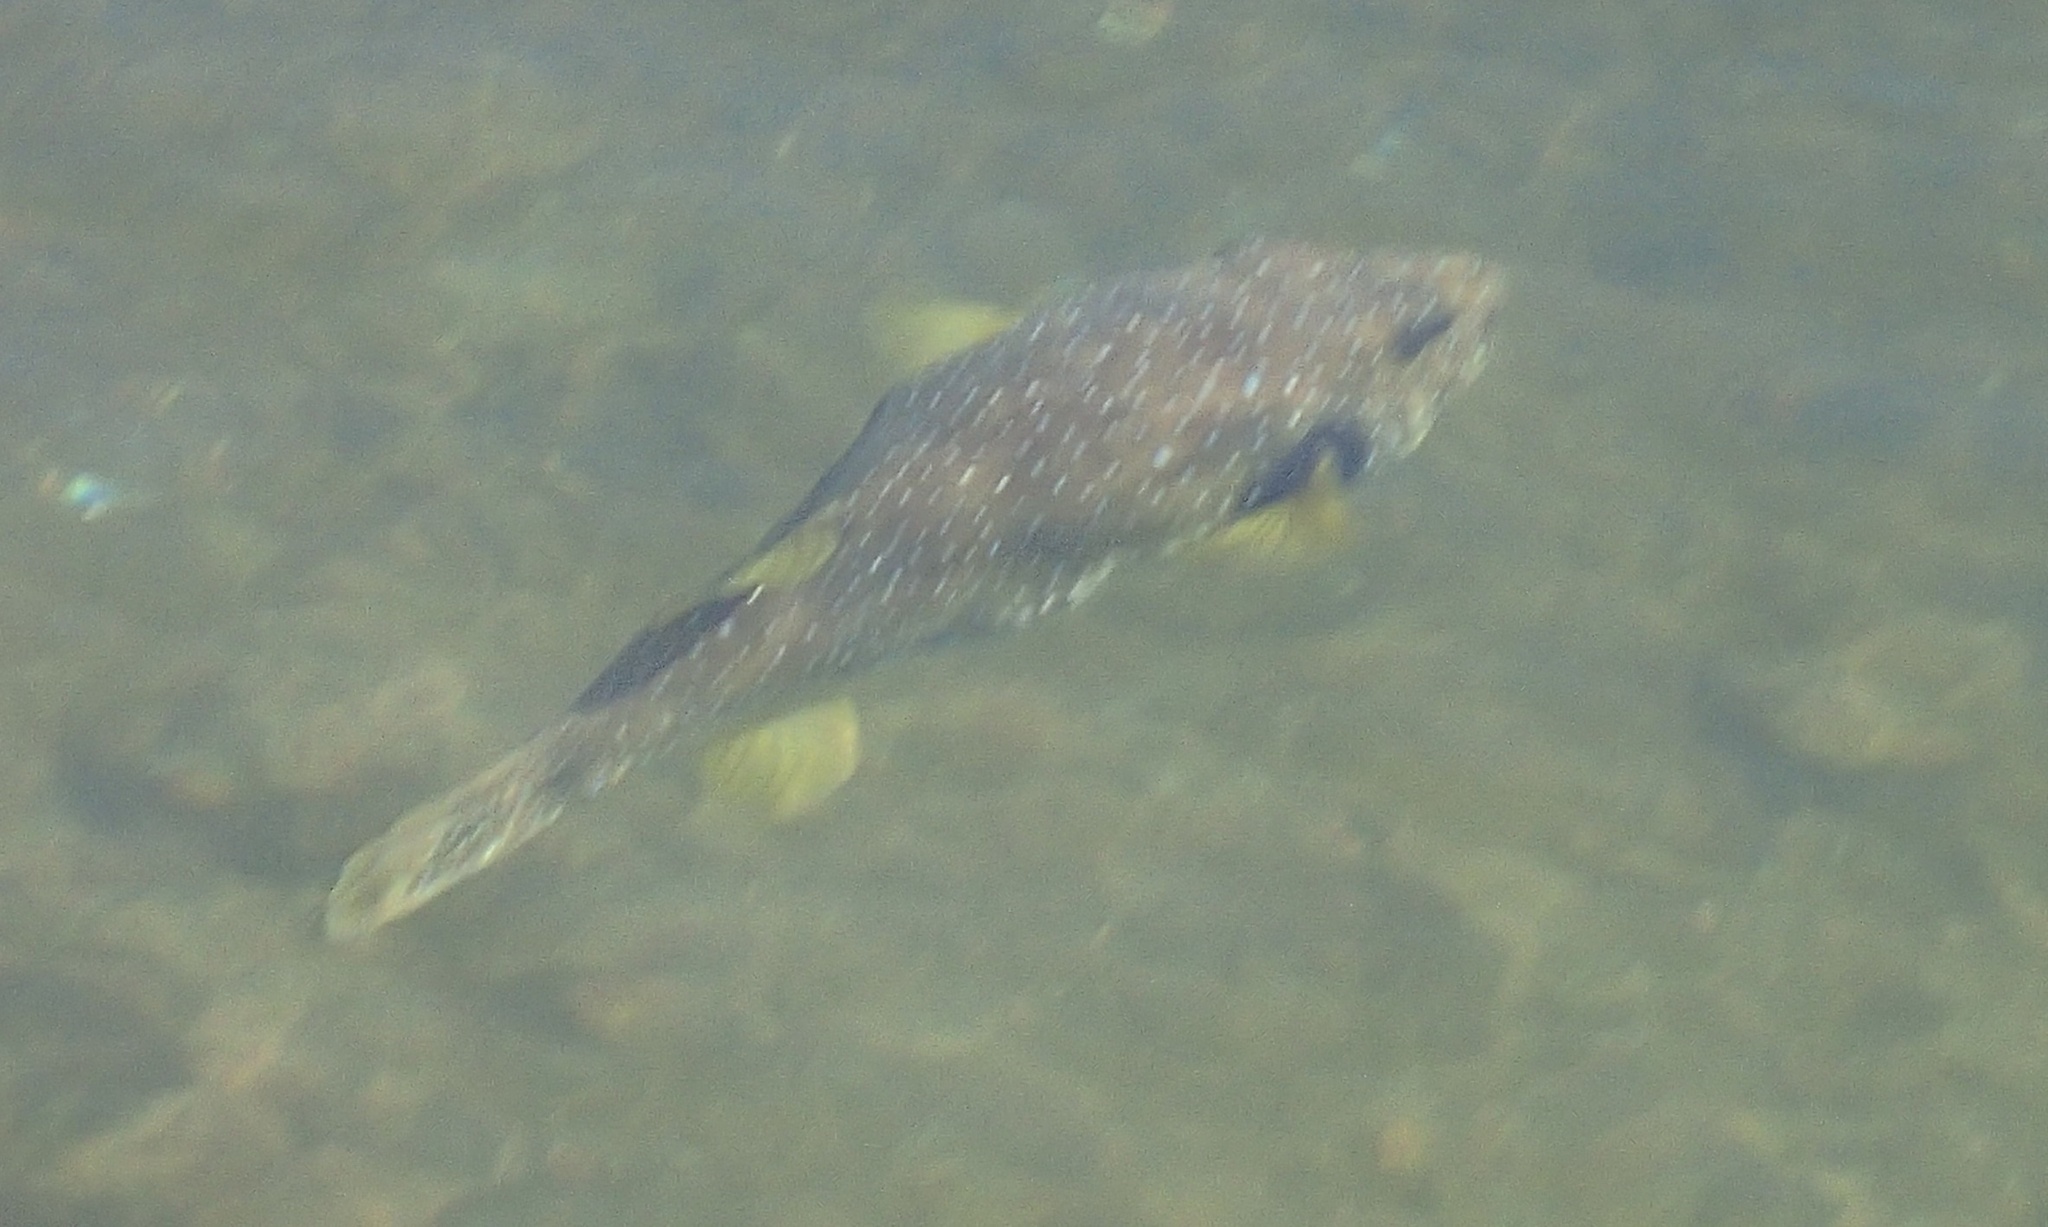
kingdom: Animalia
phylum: Chordata
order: Tetraodontiformes
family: Tetraodontidae
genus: Arothron
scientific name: Arothron hispidus
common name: Stripebelly puffer
